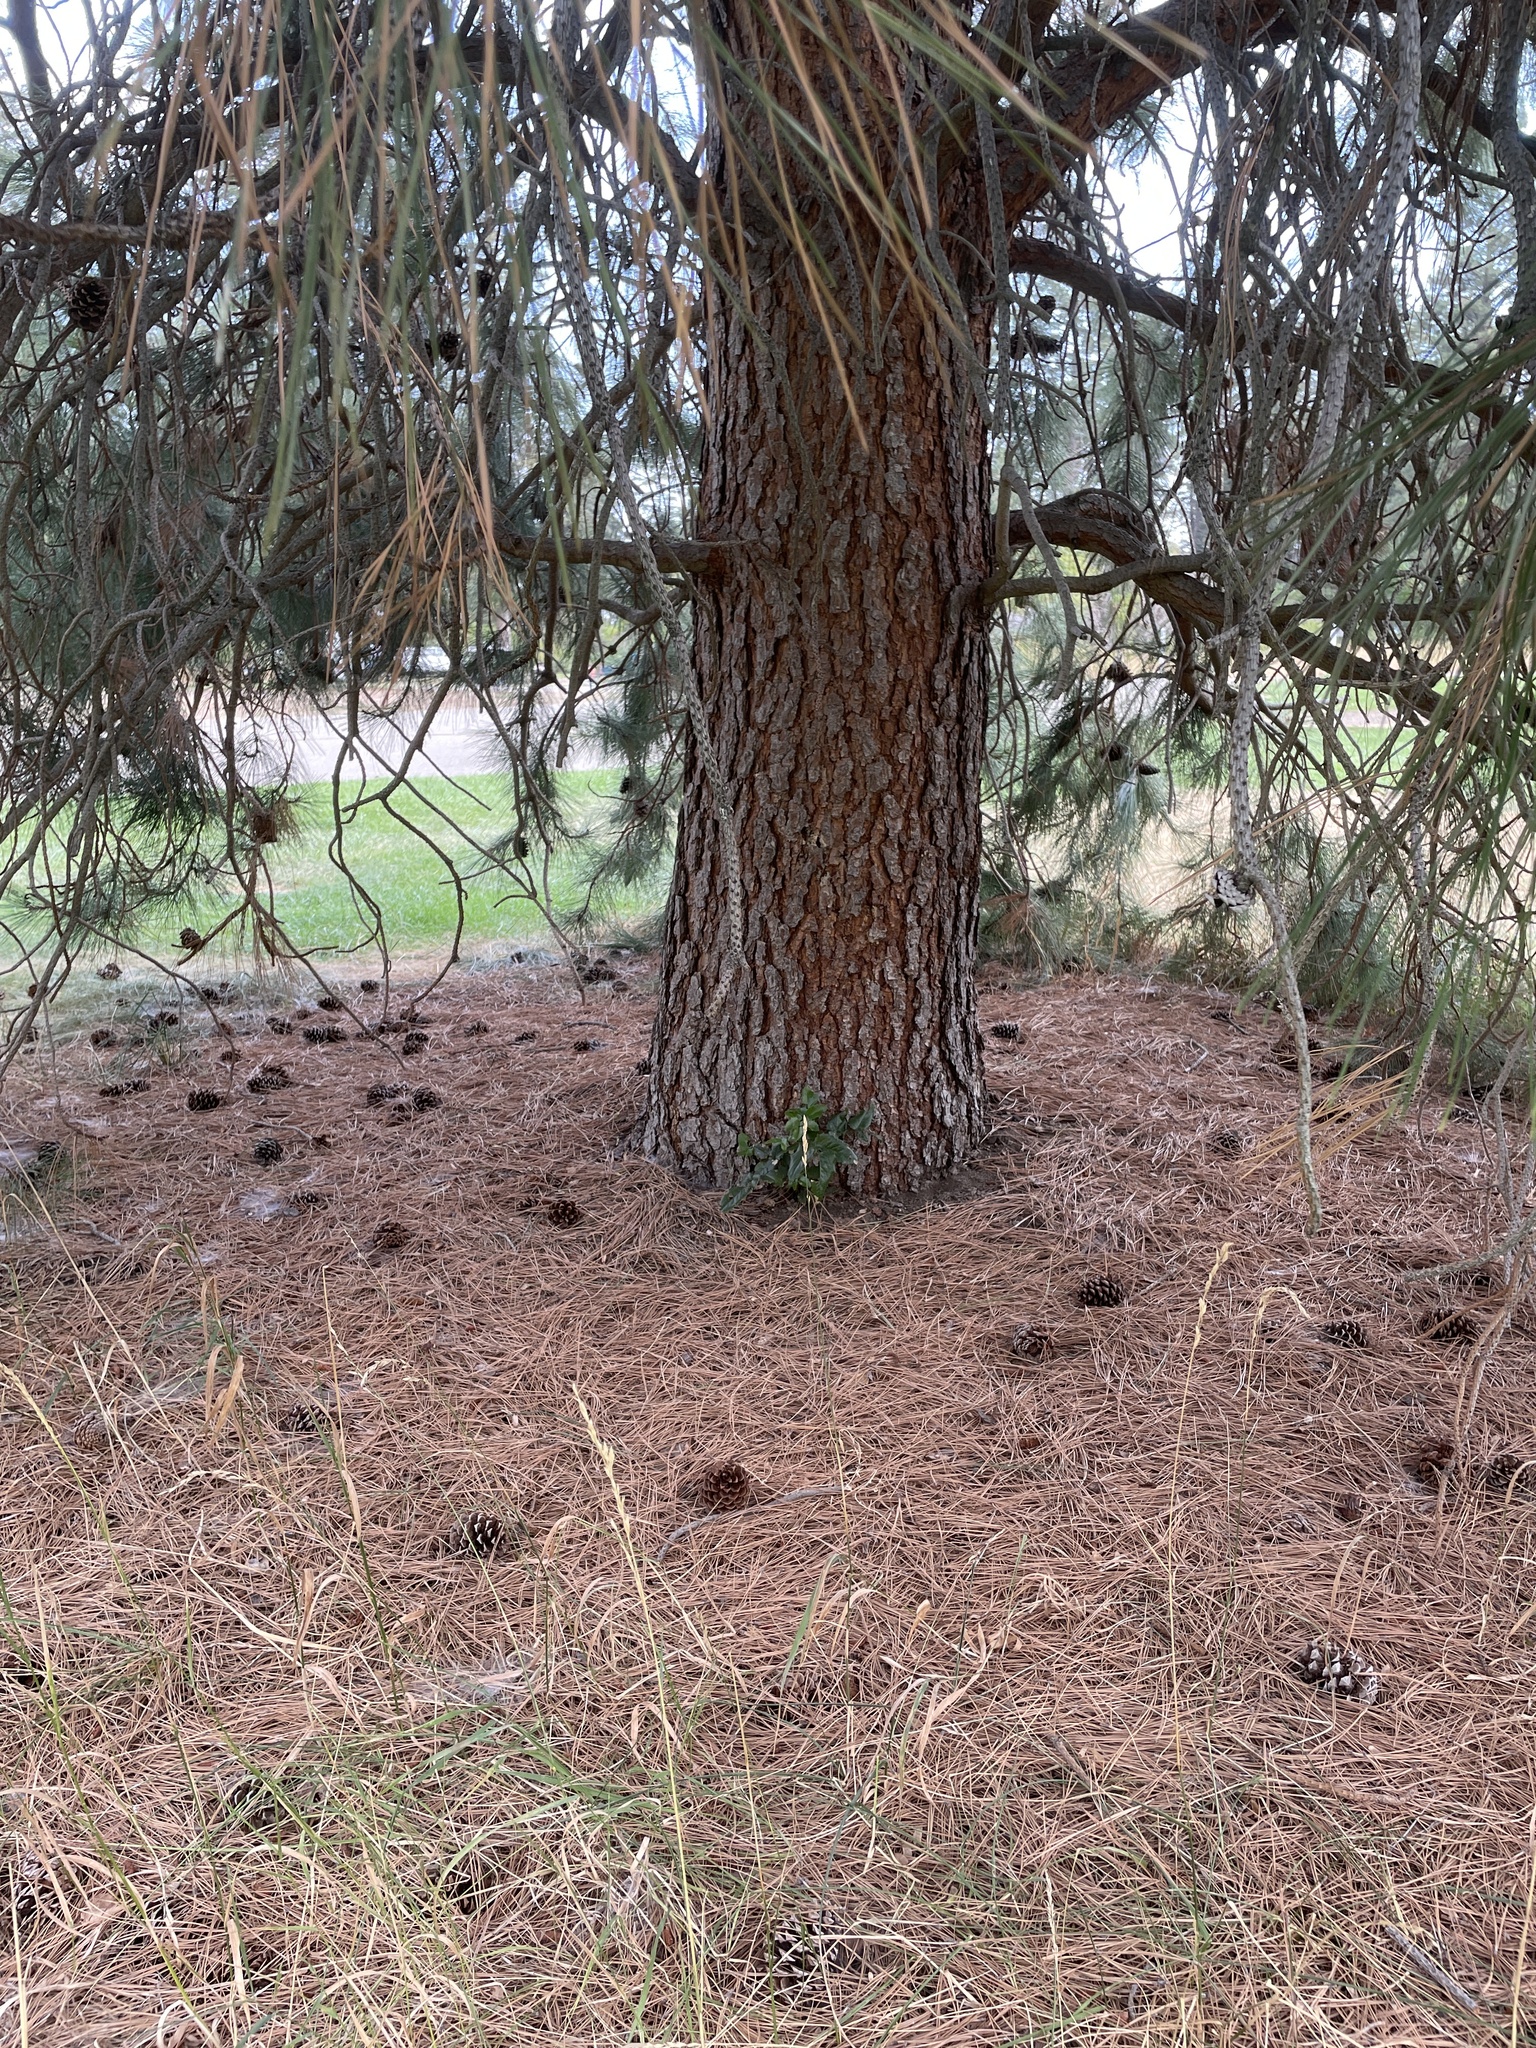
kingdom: Plantae
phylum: Tracheophyta
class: Pinopsida
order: Pinales
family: Pinaceae
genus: Pinus
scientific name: Pinus ponderosa
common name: Western yellow-pine
